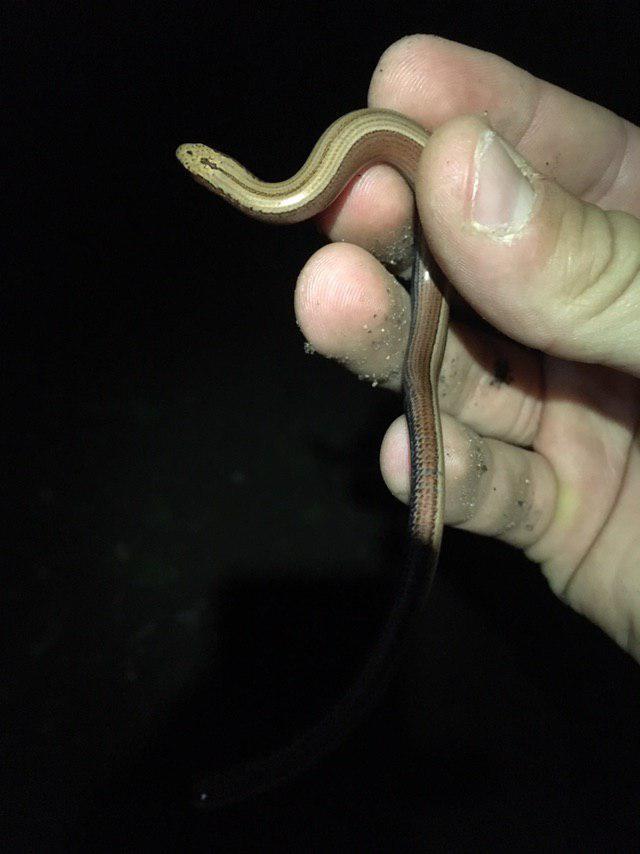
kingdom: Animalia
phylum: Chordata
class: Squamata
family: Anguidae
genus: Anguis
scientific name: Anguis fragilis
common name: Slow worm
